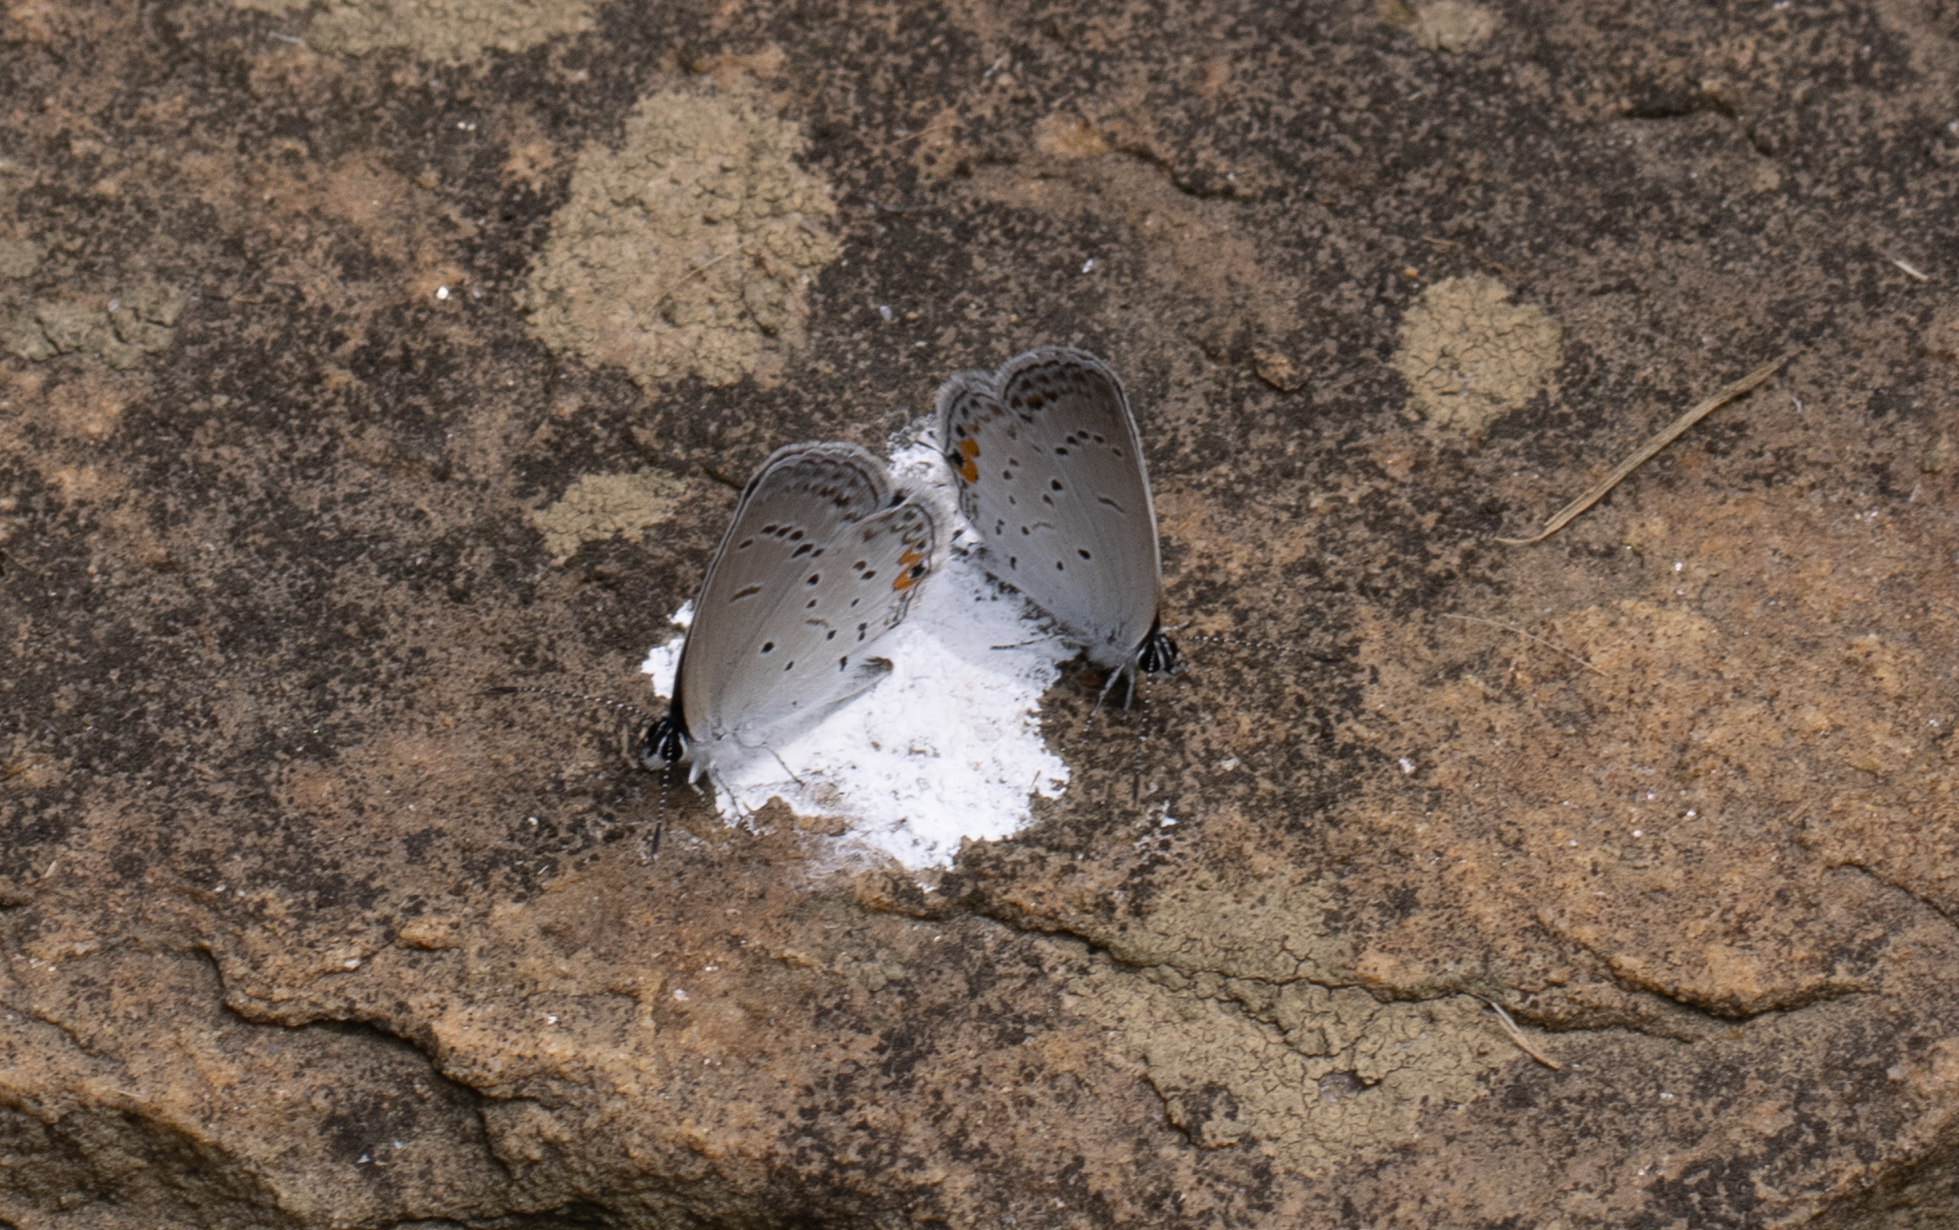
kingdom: Animalia
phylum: Arthropoda
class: Insecta
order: Lepidoptera
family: Lycaenidae
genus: Elkalyce
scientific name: Elkalyce comyntas
